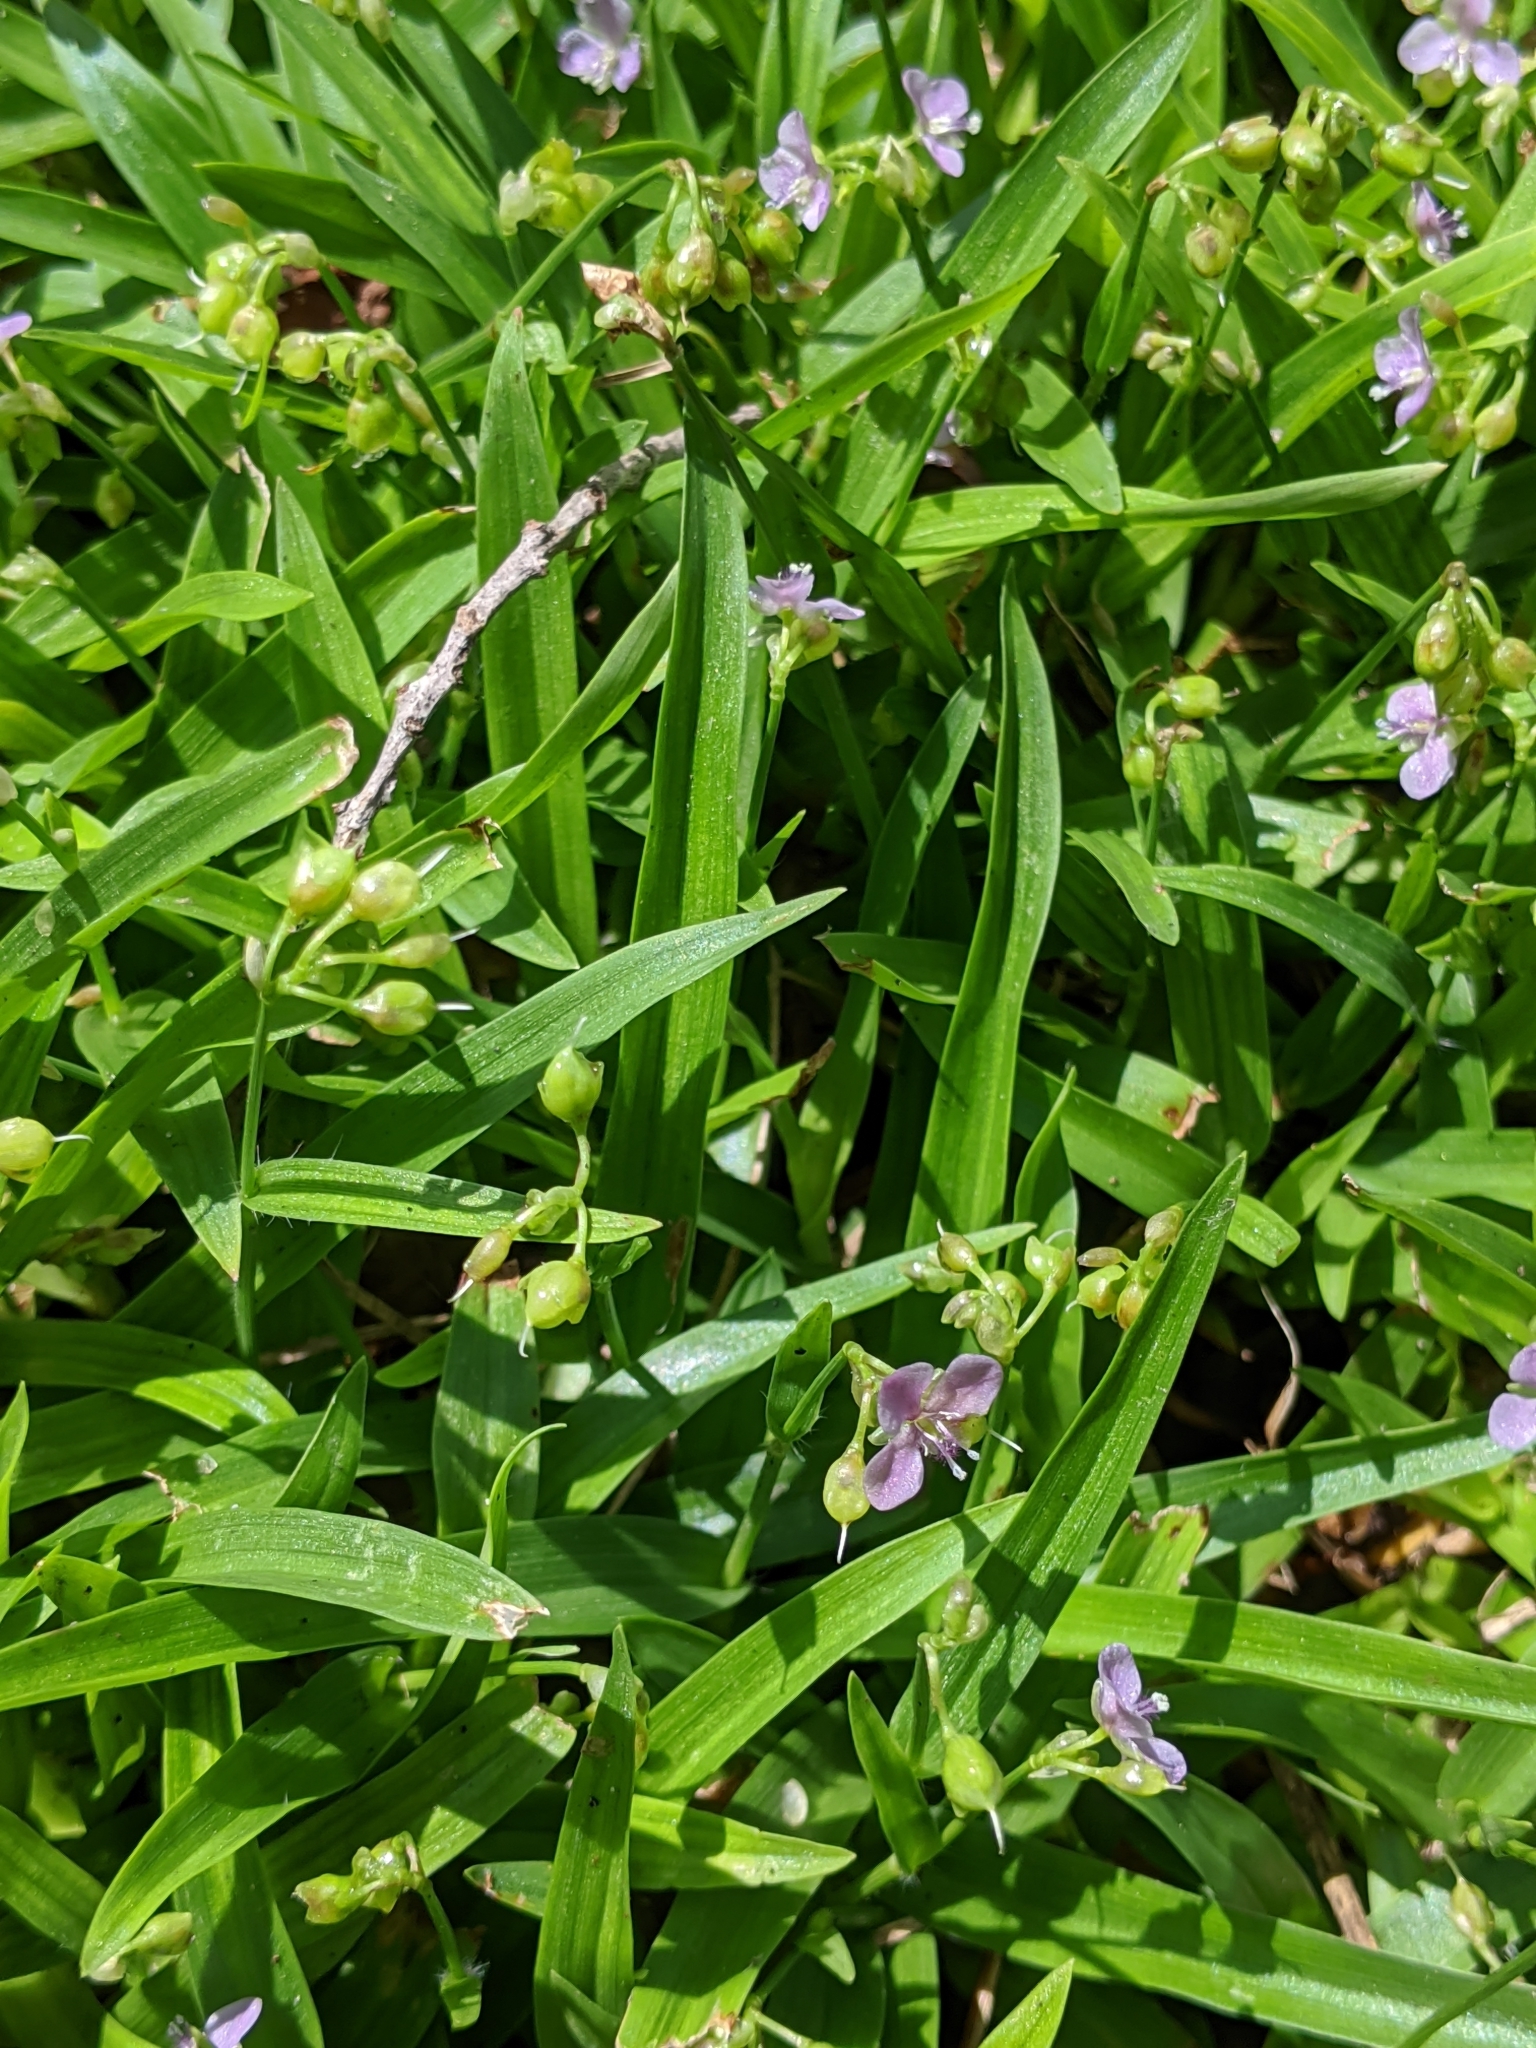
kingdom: Plantae
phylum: Tracheophyta
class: Liliopsida
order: Commelinales
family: Commelinaceae
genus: Murdannia
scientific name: Murdannia nudiflora
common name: Nakedstem dewflower
